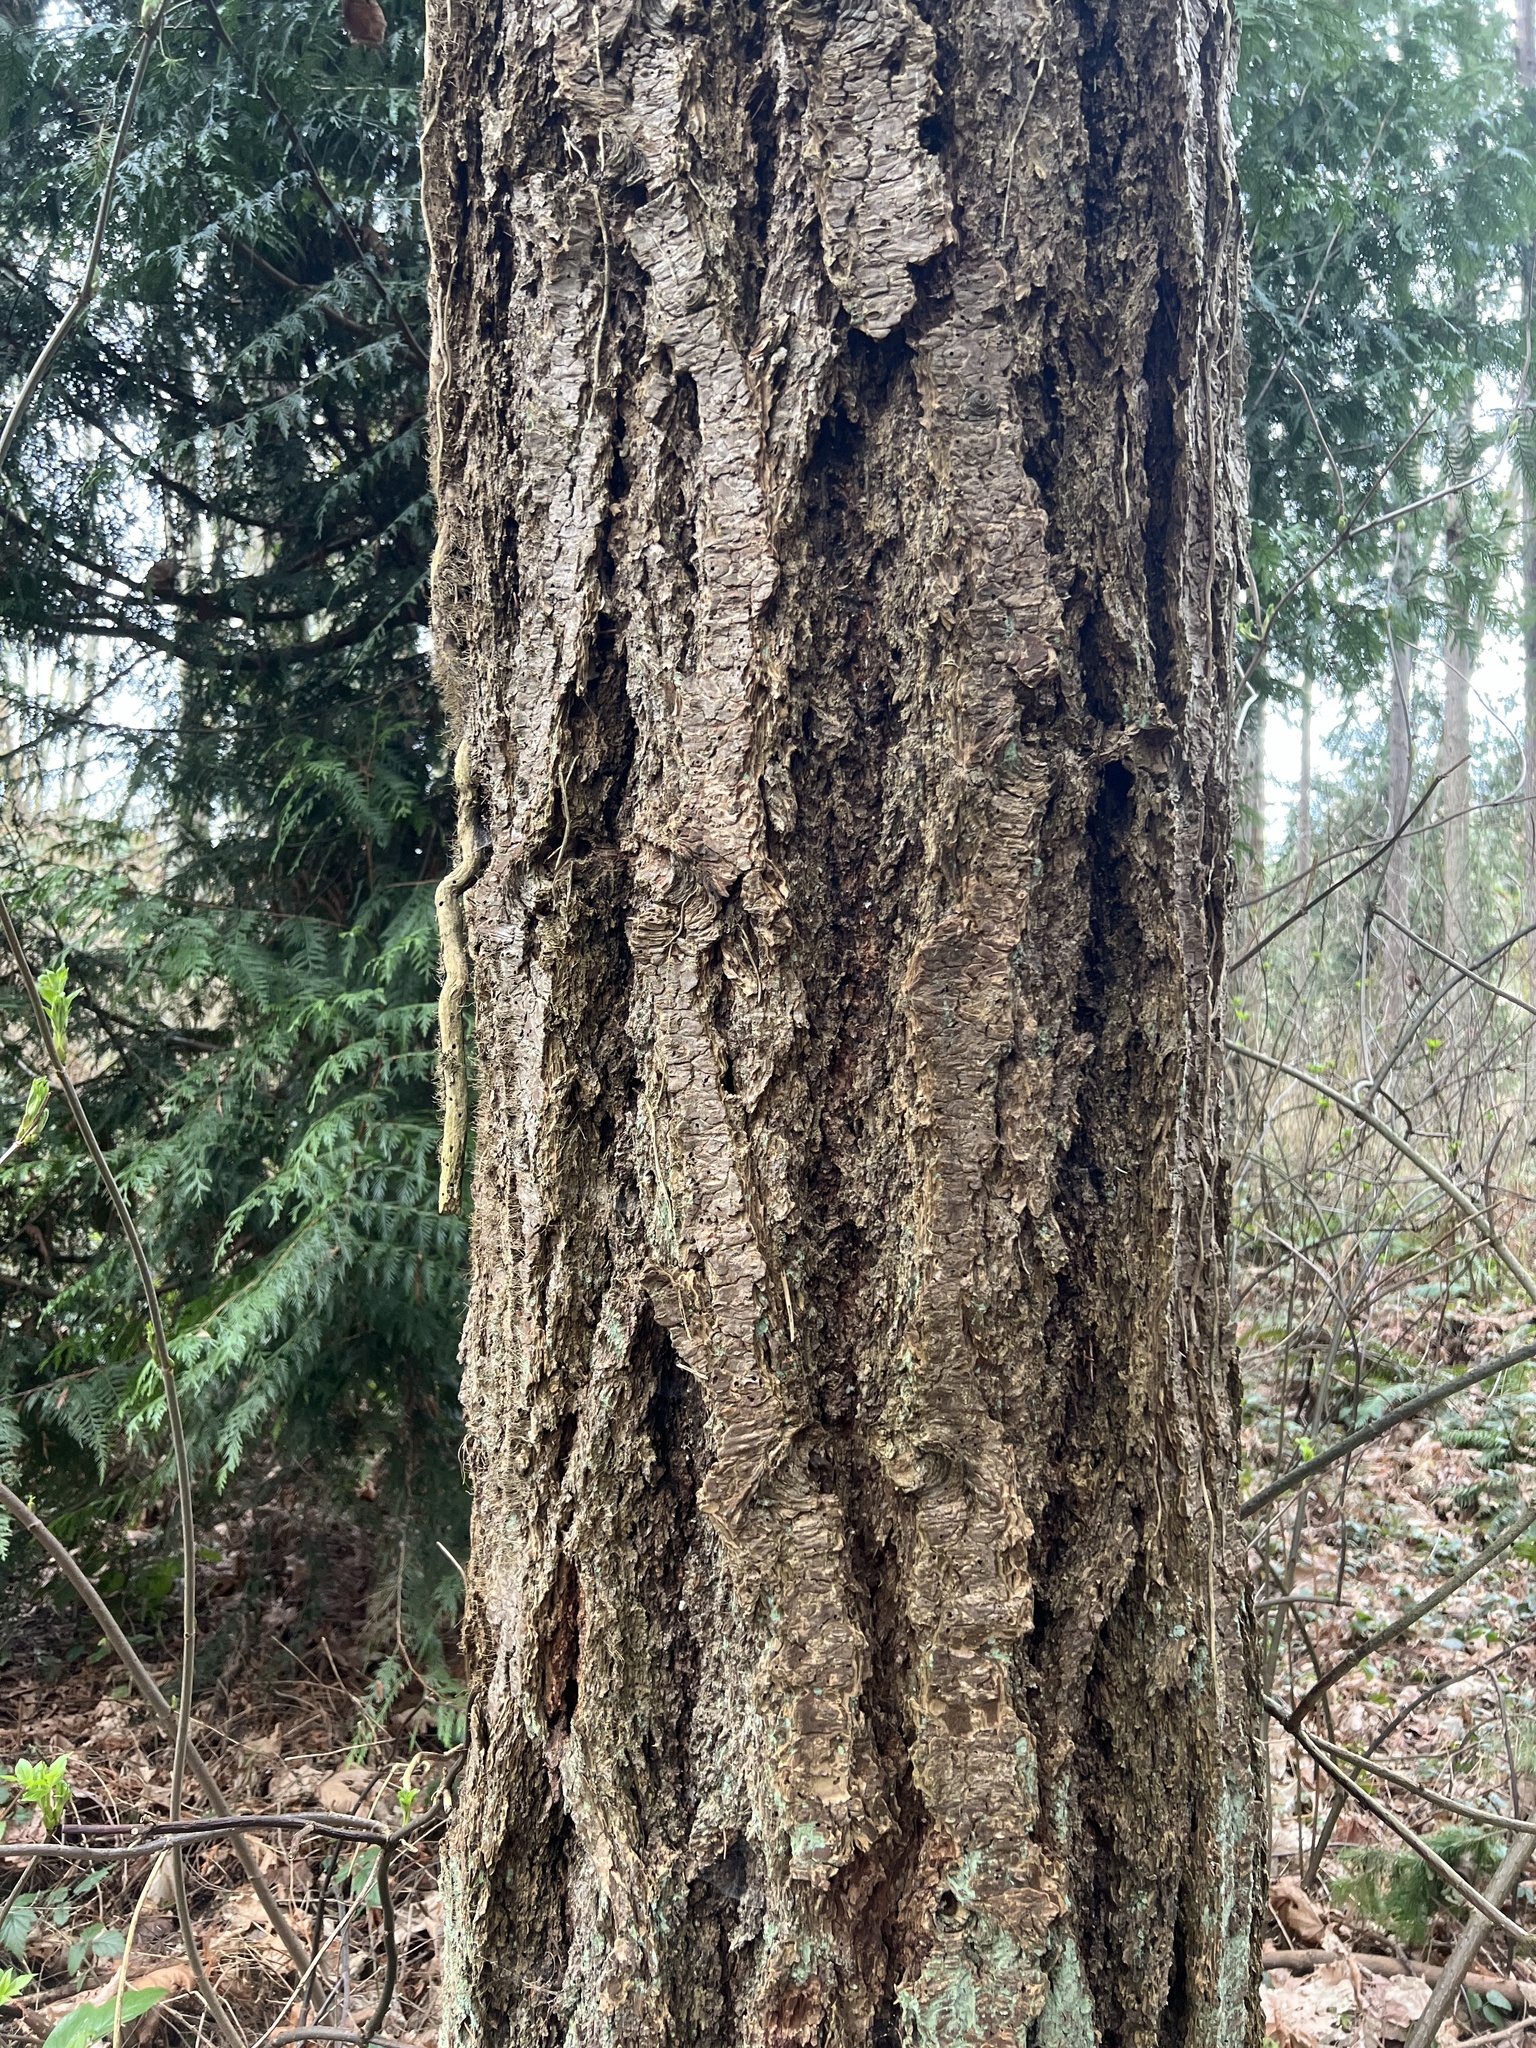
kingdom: Plantae
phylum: Tracheophyta
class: Pinopsida
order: Pinales
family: Pinaceae
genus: Pseudotsuga
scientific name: Pseudotsuga menziesii
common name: Douglas fir
